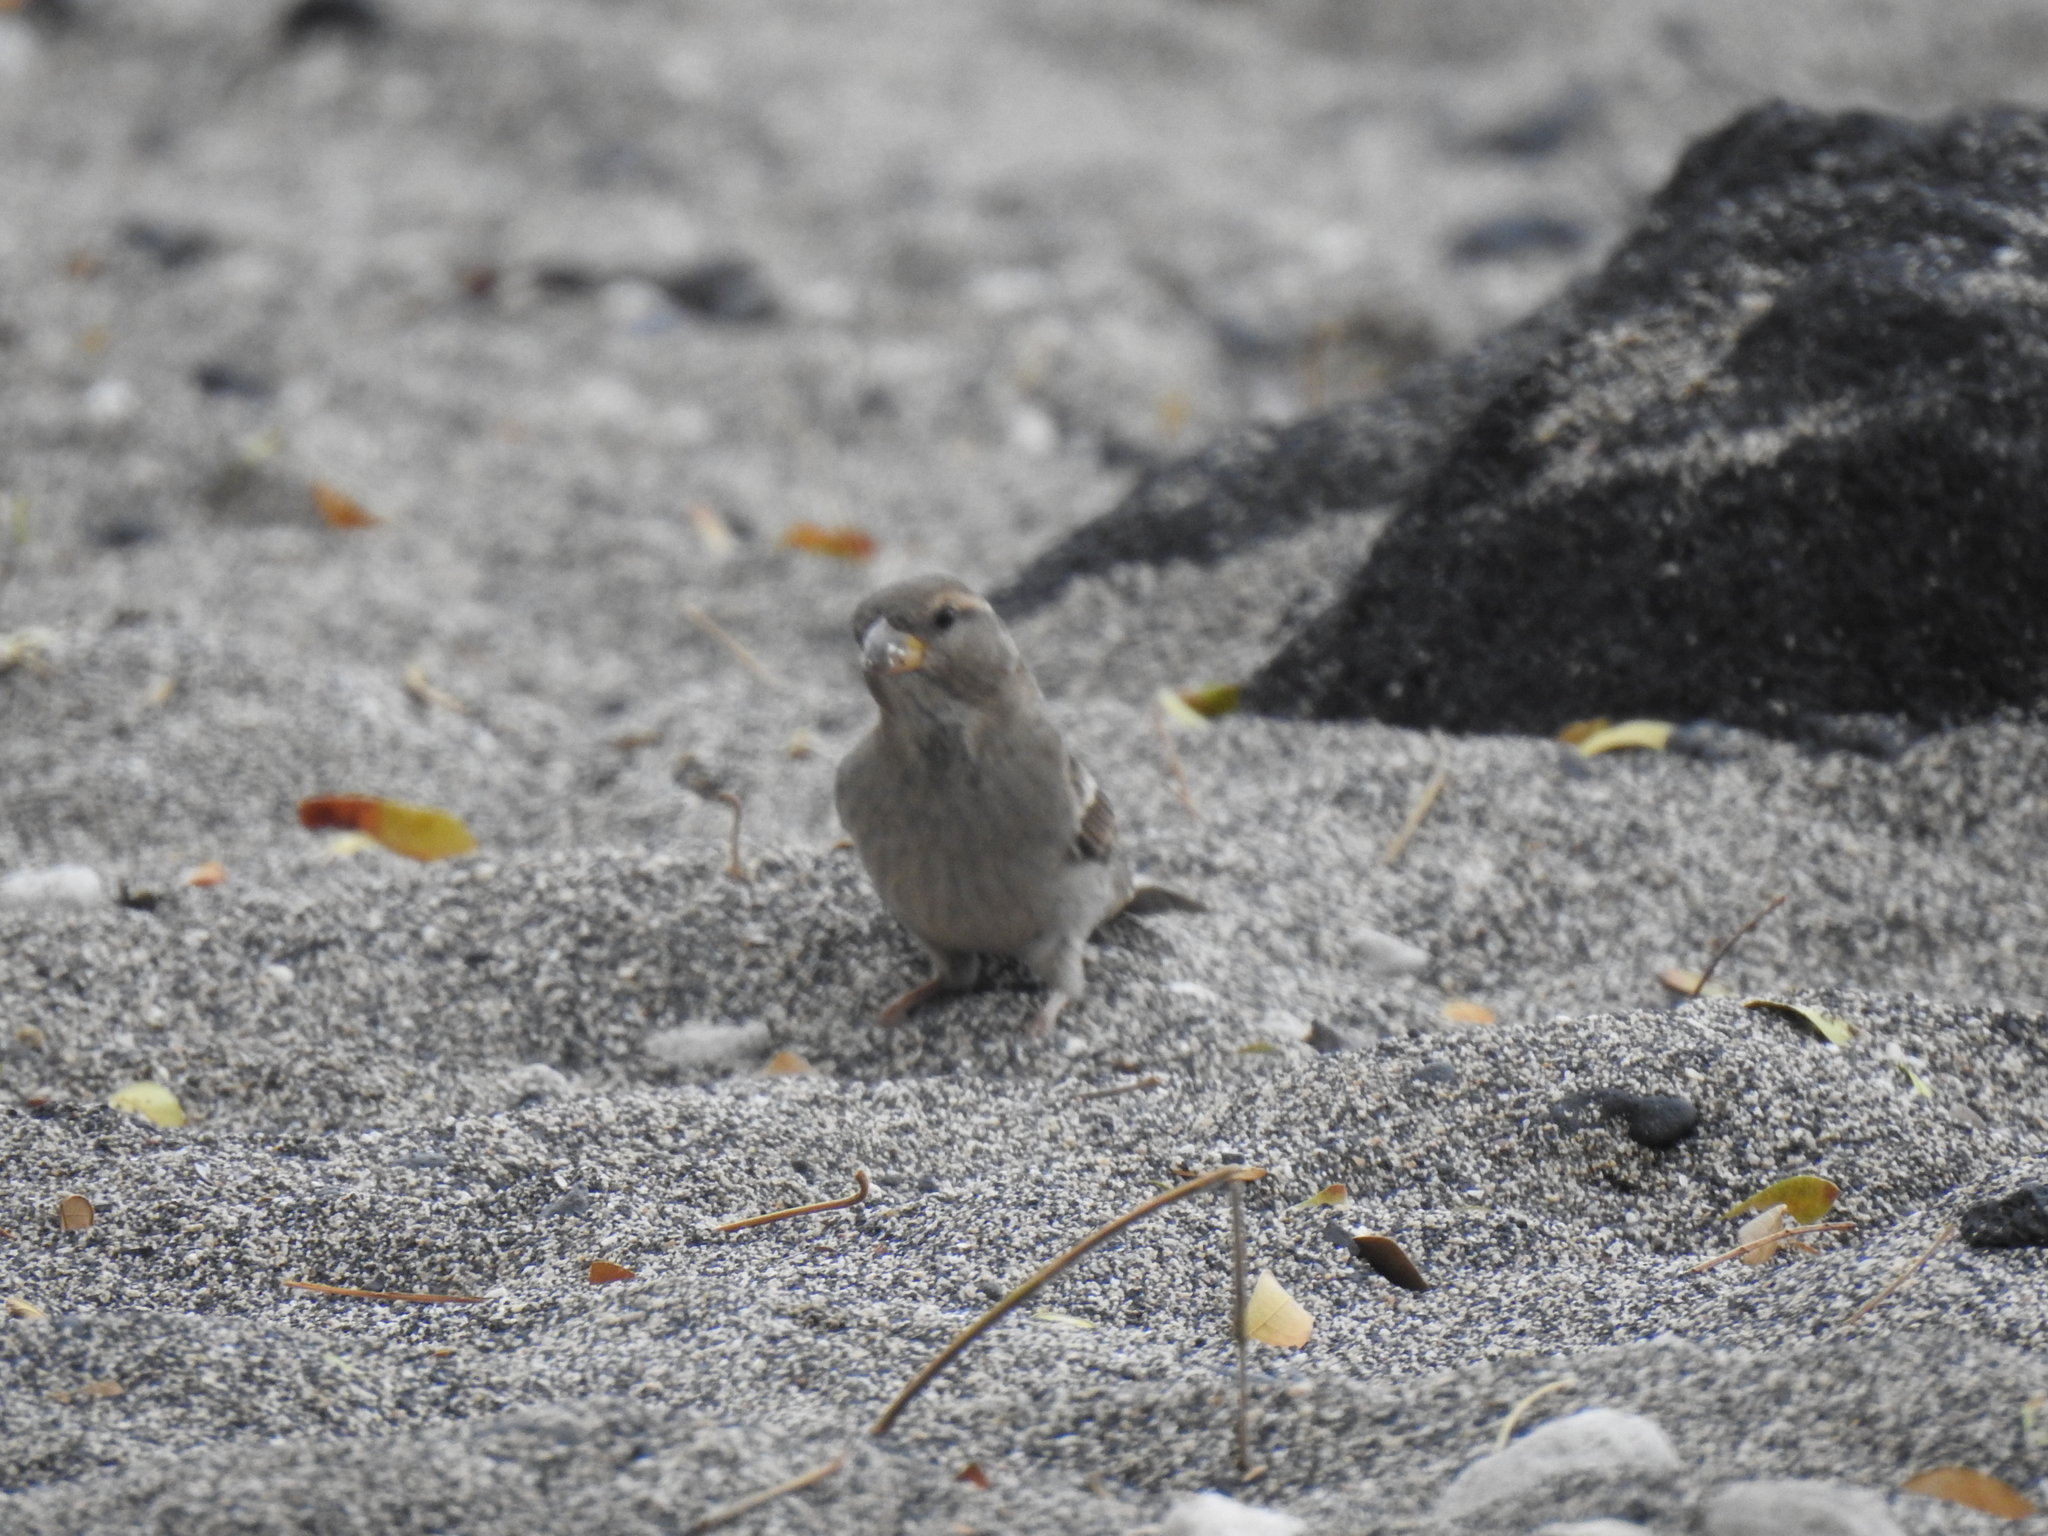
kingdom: Animalia
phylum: Chordata
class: Aves
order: Passeriformes
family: Passeridae
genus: Passer
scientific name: Passer domesticus
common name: House sparrow
